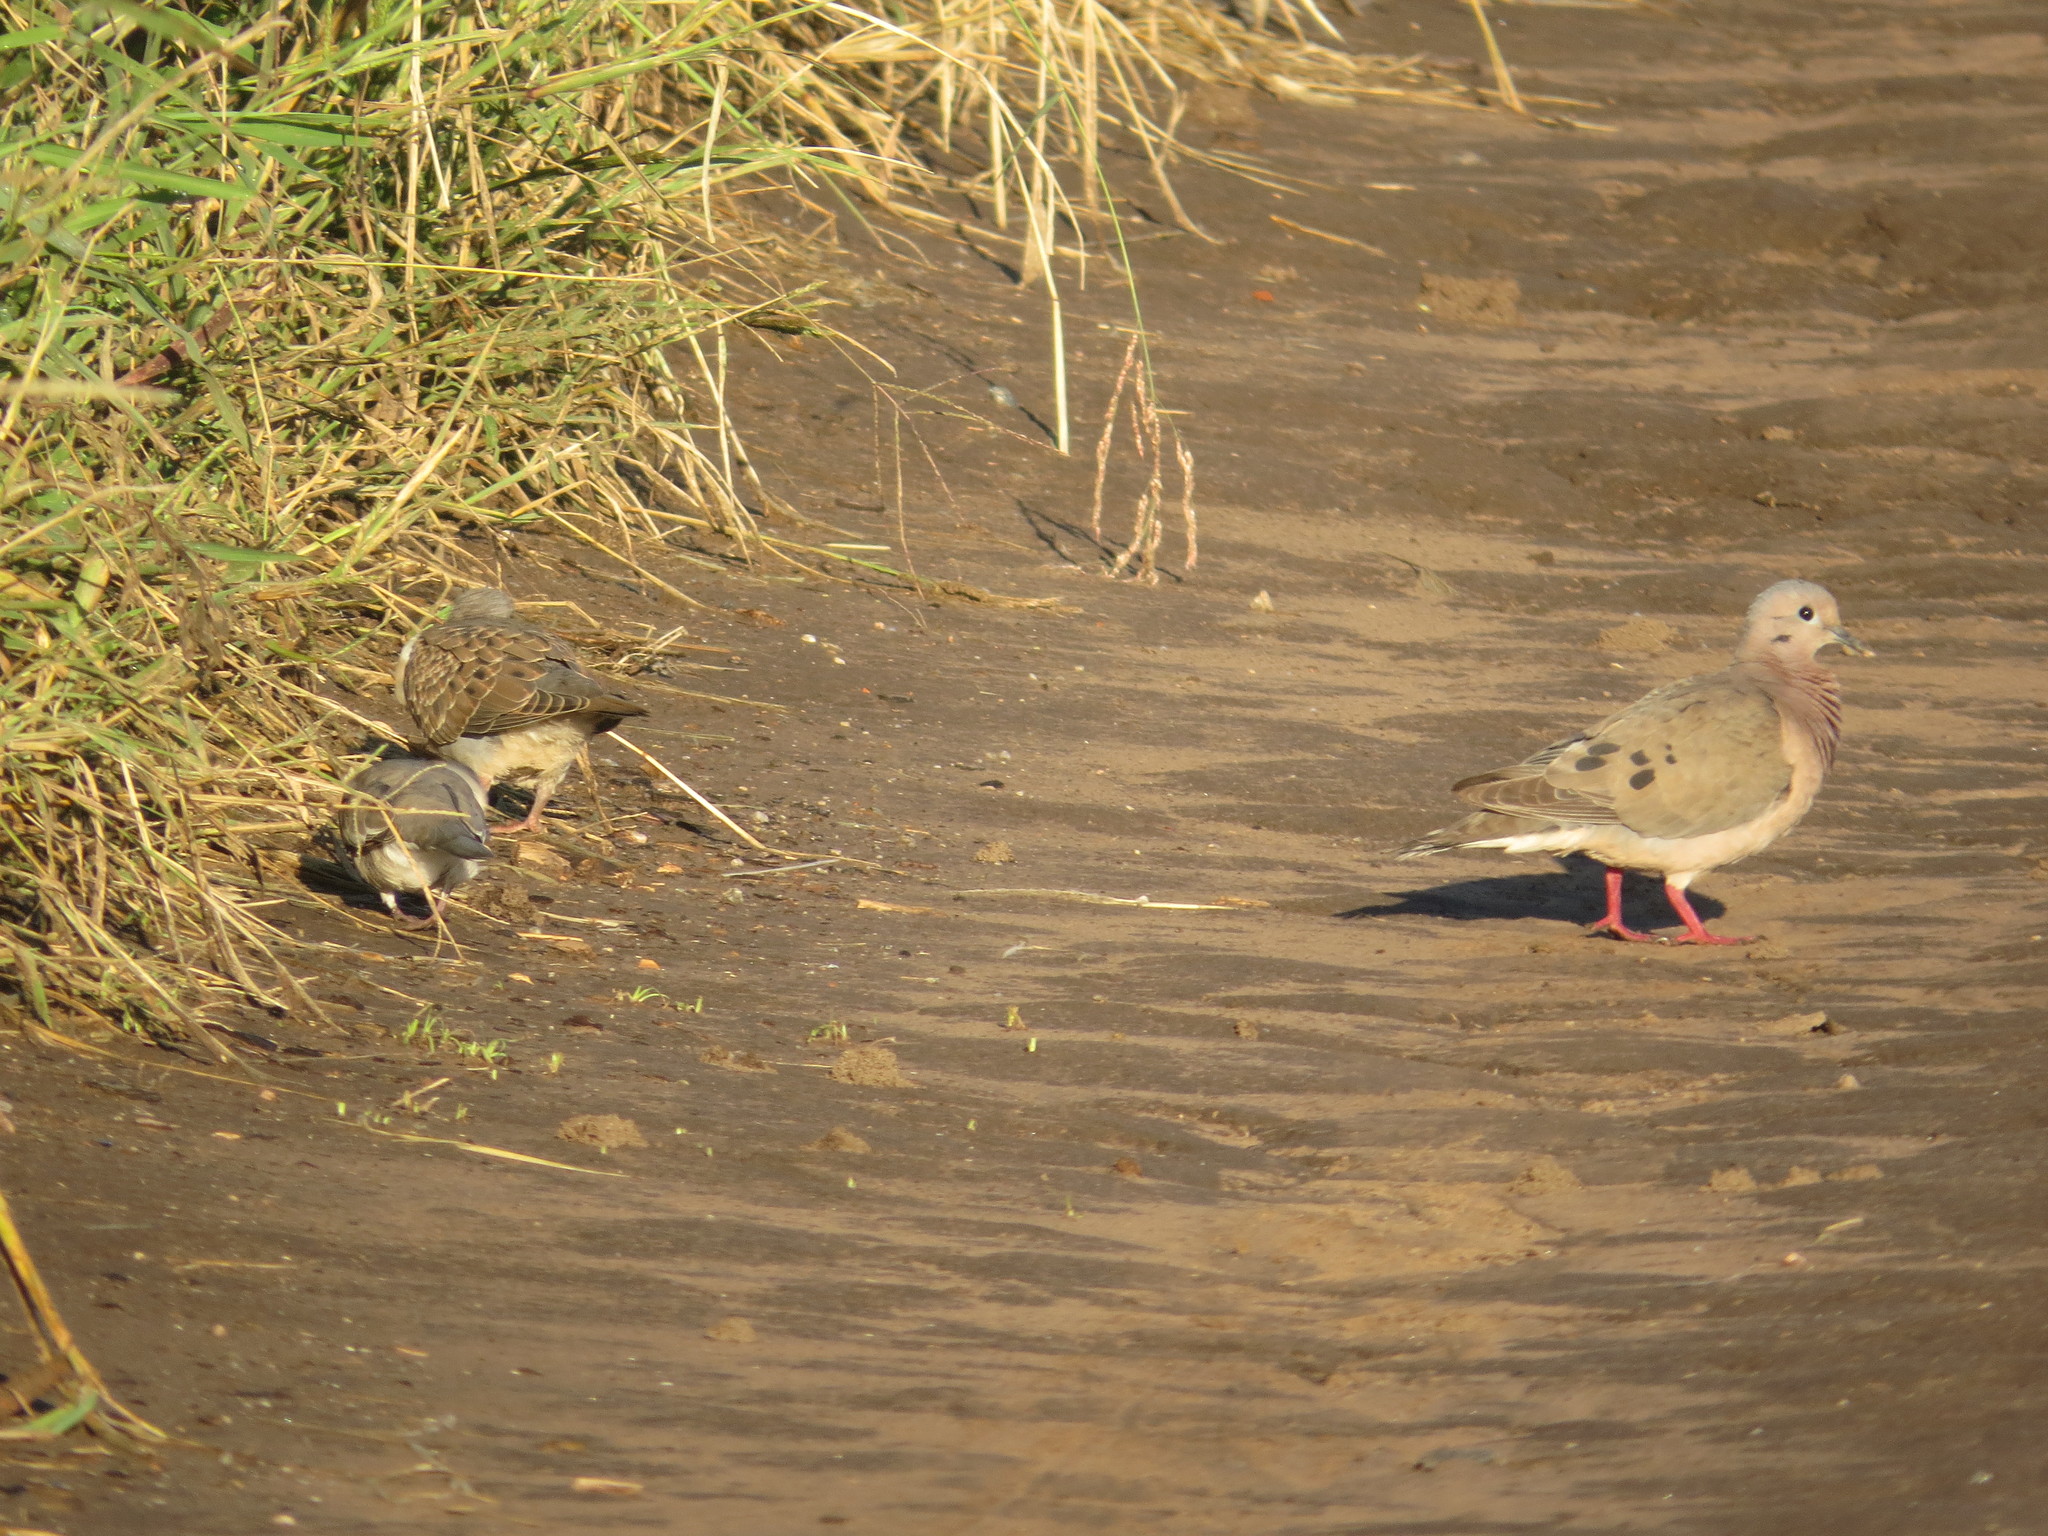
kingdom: Animalia
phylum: Chordata
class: Aves
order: Columbiformes
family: Columbidae
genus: Zenaida
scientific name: Zenaida auriculata
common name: Eared dove
